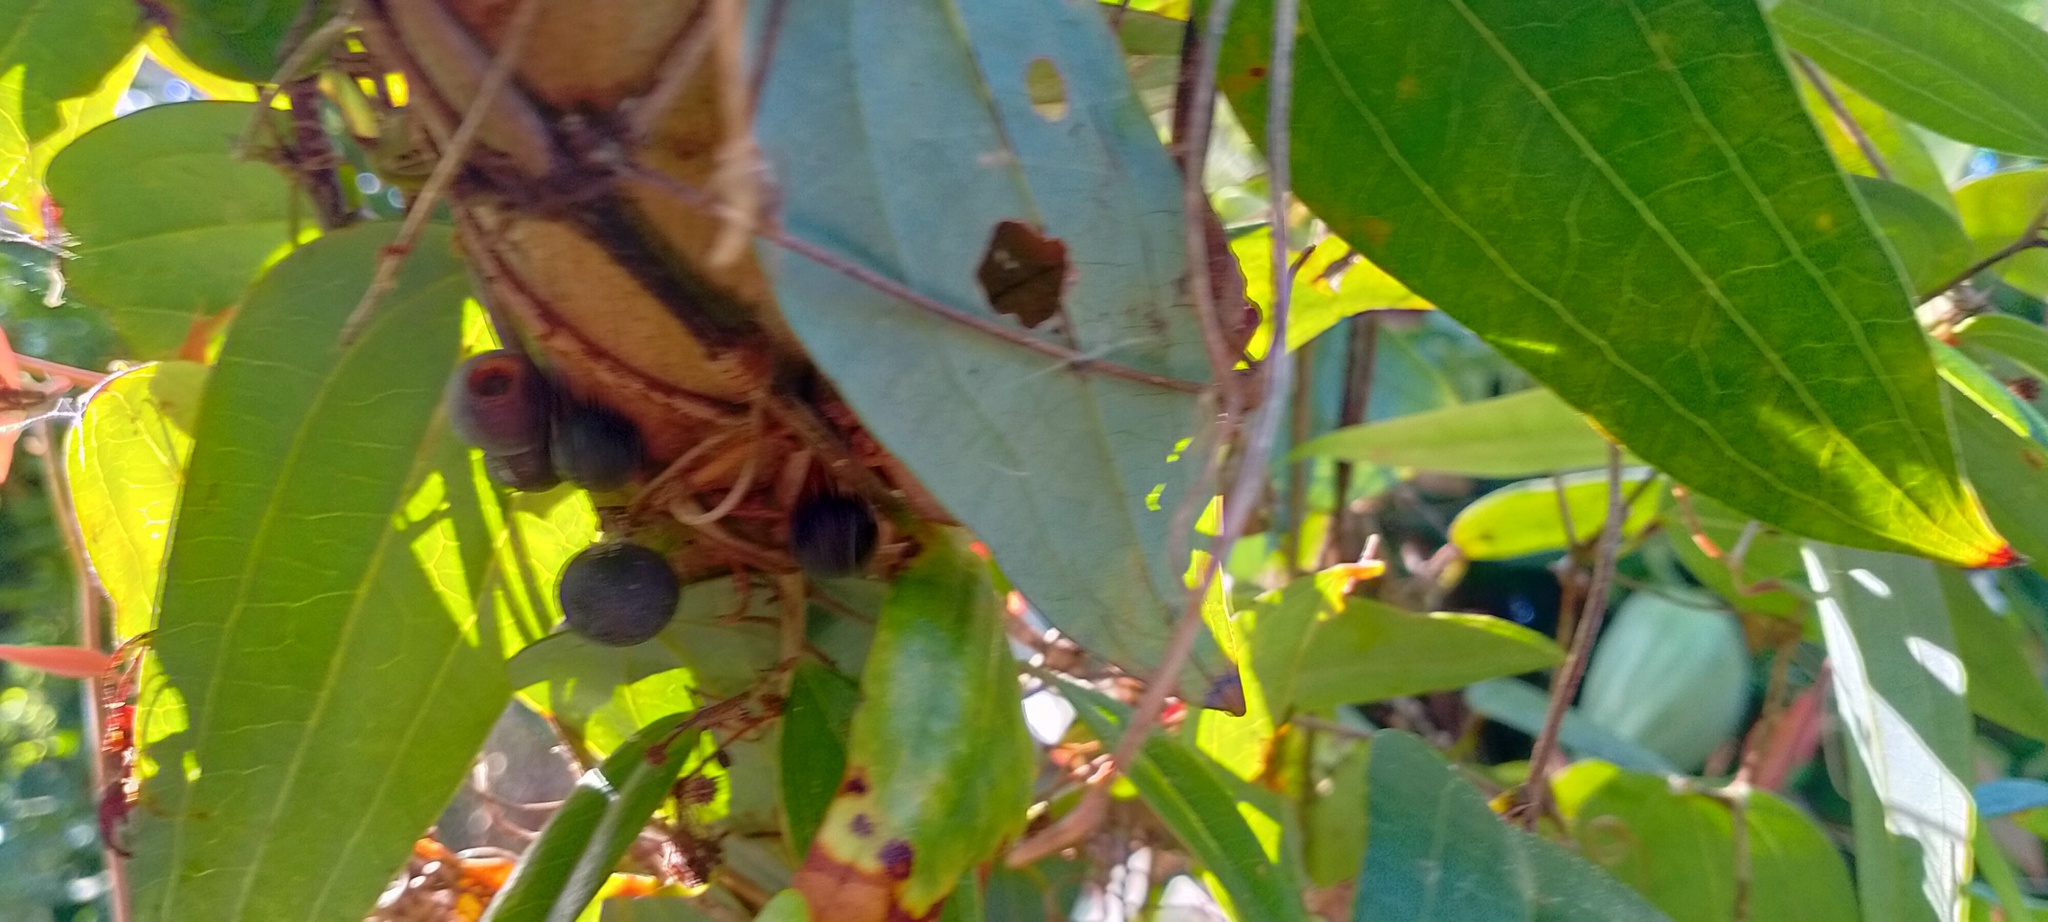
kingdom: Plantae
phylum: Tracheophyta
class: Liliopsida
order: Liliales
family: Smilacaceae
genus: Smilax
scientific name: Smilax glyciphylla
